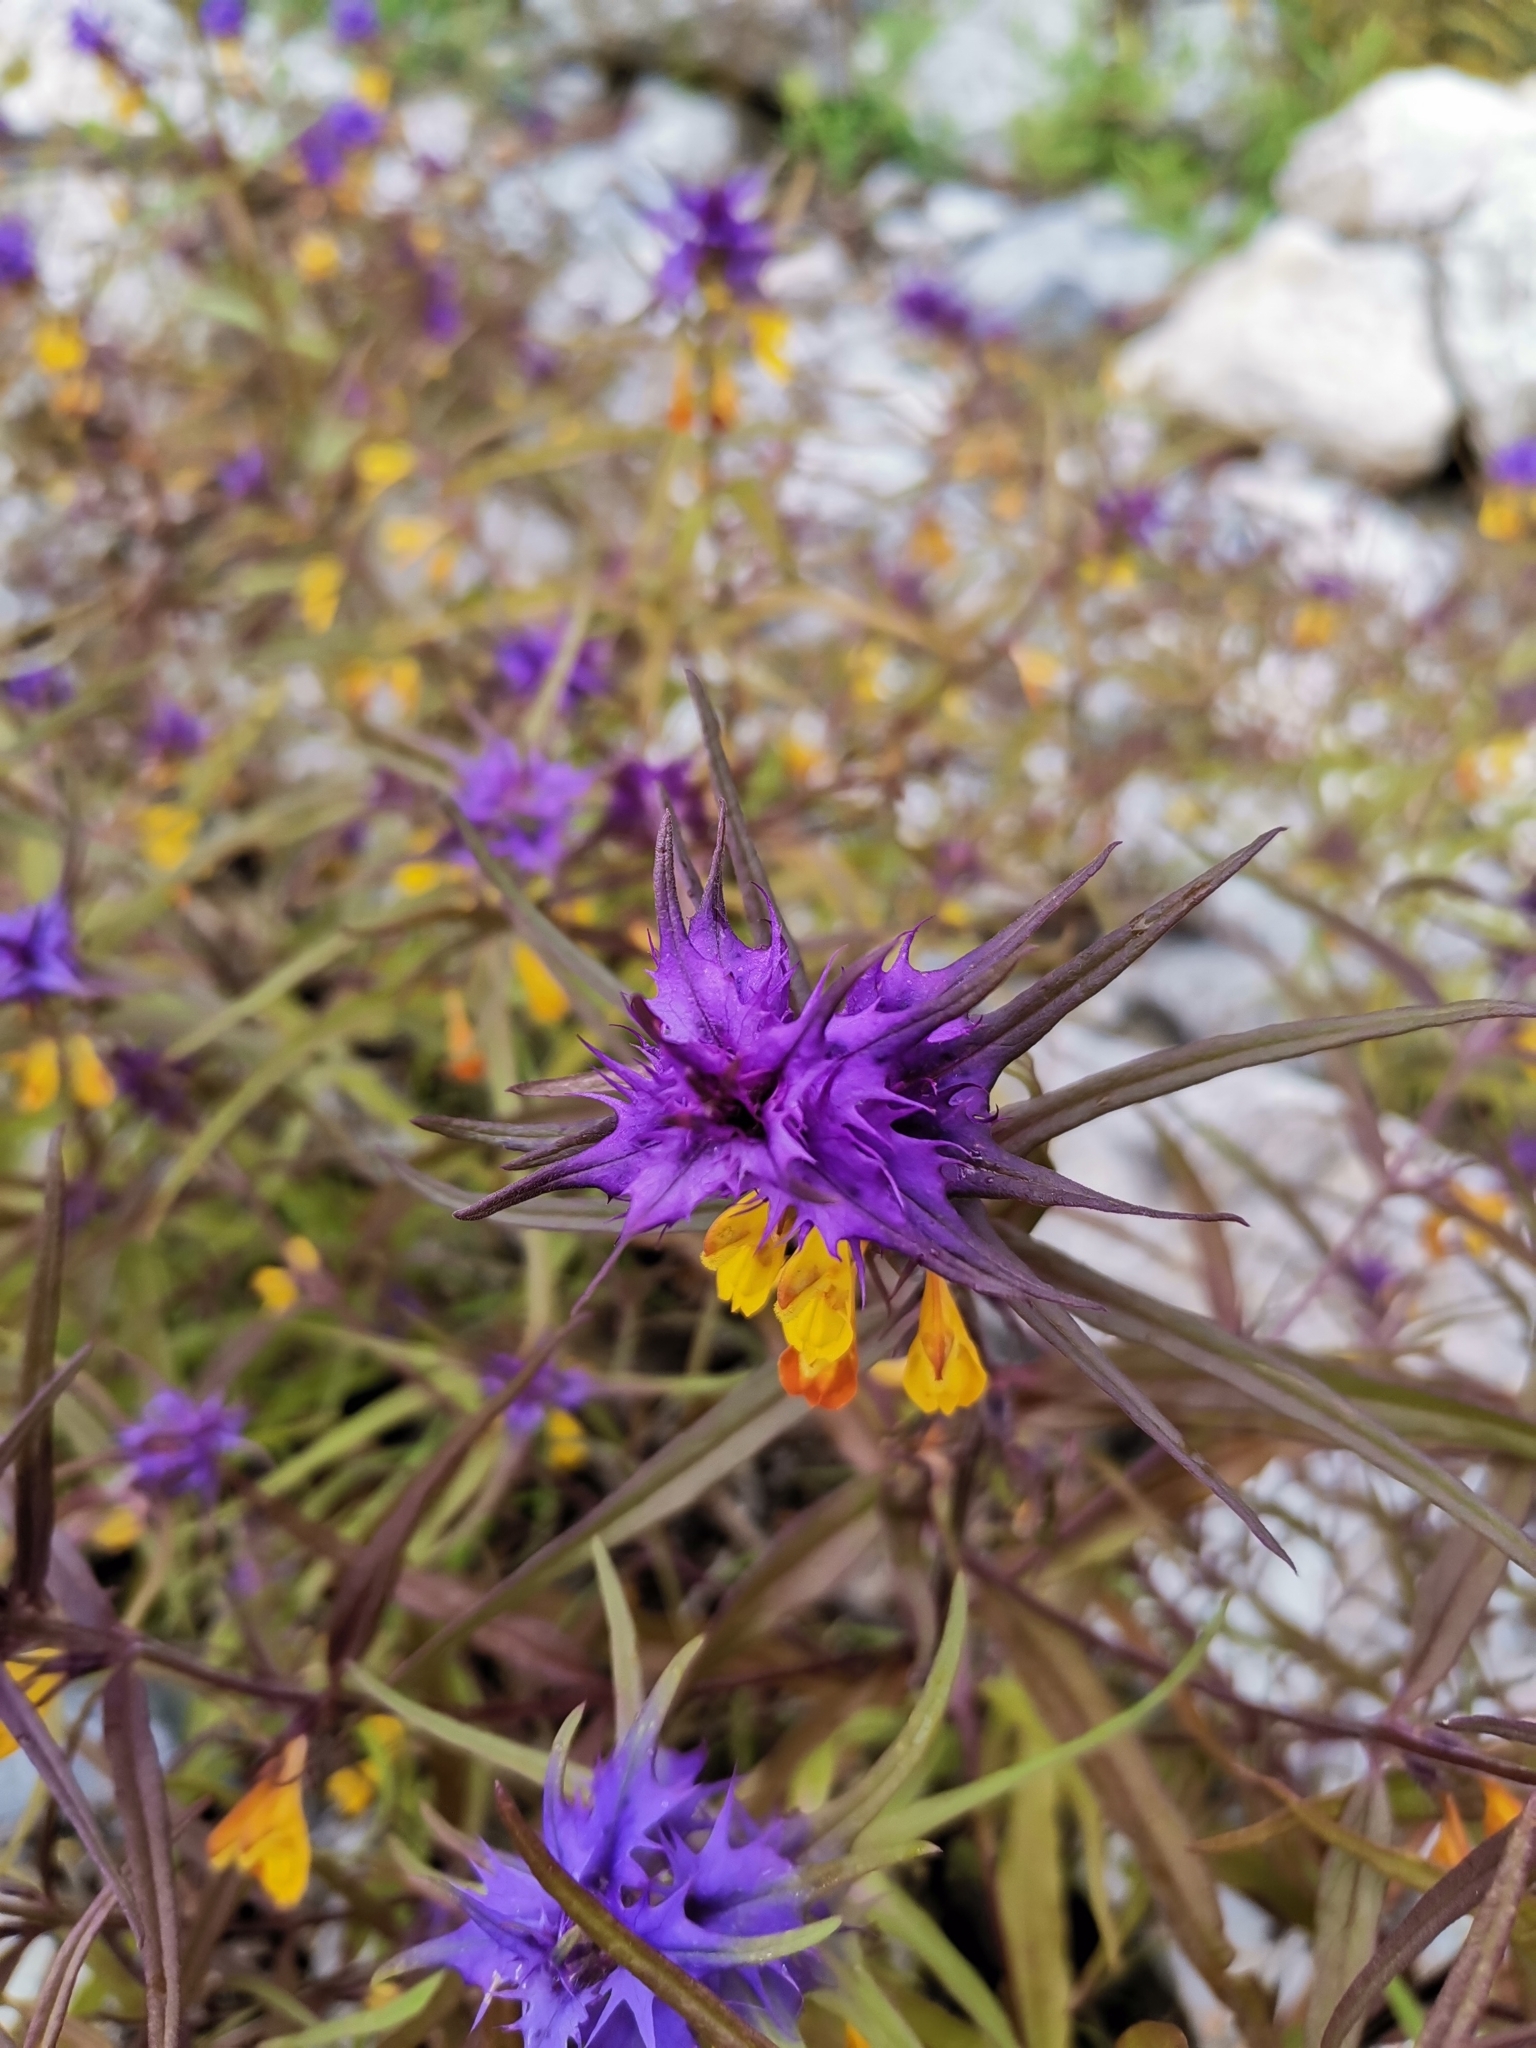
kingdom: Plantae
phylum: Tracheophyta
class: Magnoliopsida
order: Lamiales
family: Orobanchaceae
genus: Melampyrum
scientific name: Melampyrum nemorosum
